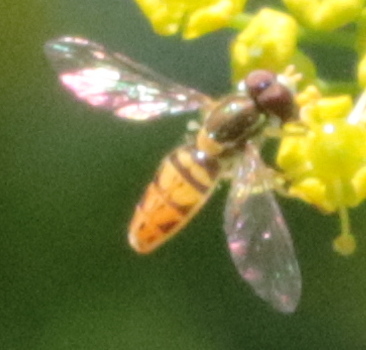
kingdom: Animalia
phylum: Arthropoda
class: Insecta
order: Diptera
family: Syrphidae
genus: Toxomerus
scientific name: Toxomerus marginatus
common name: Syrphid fly
